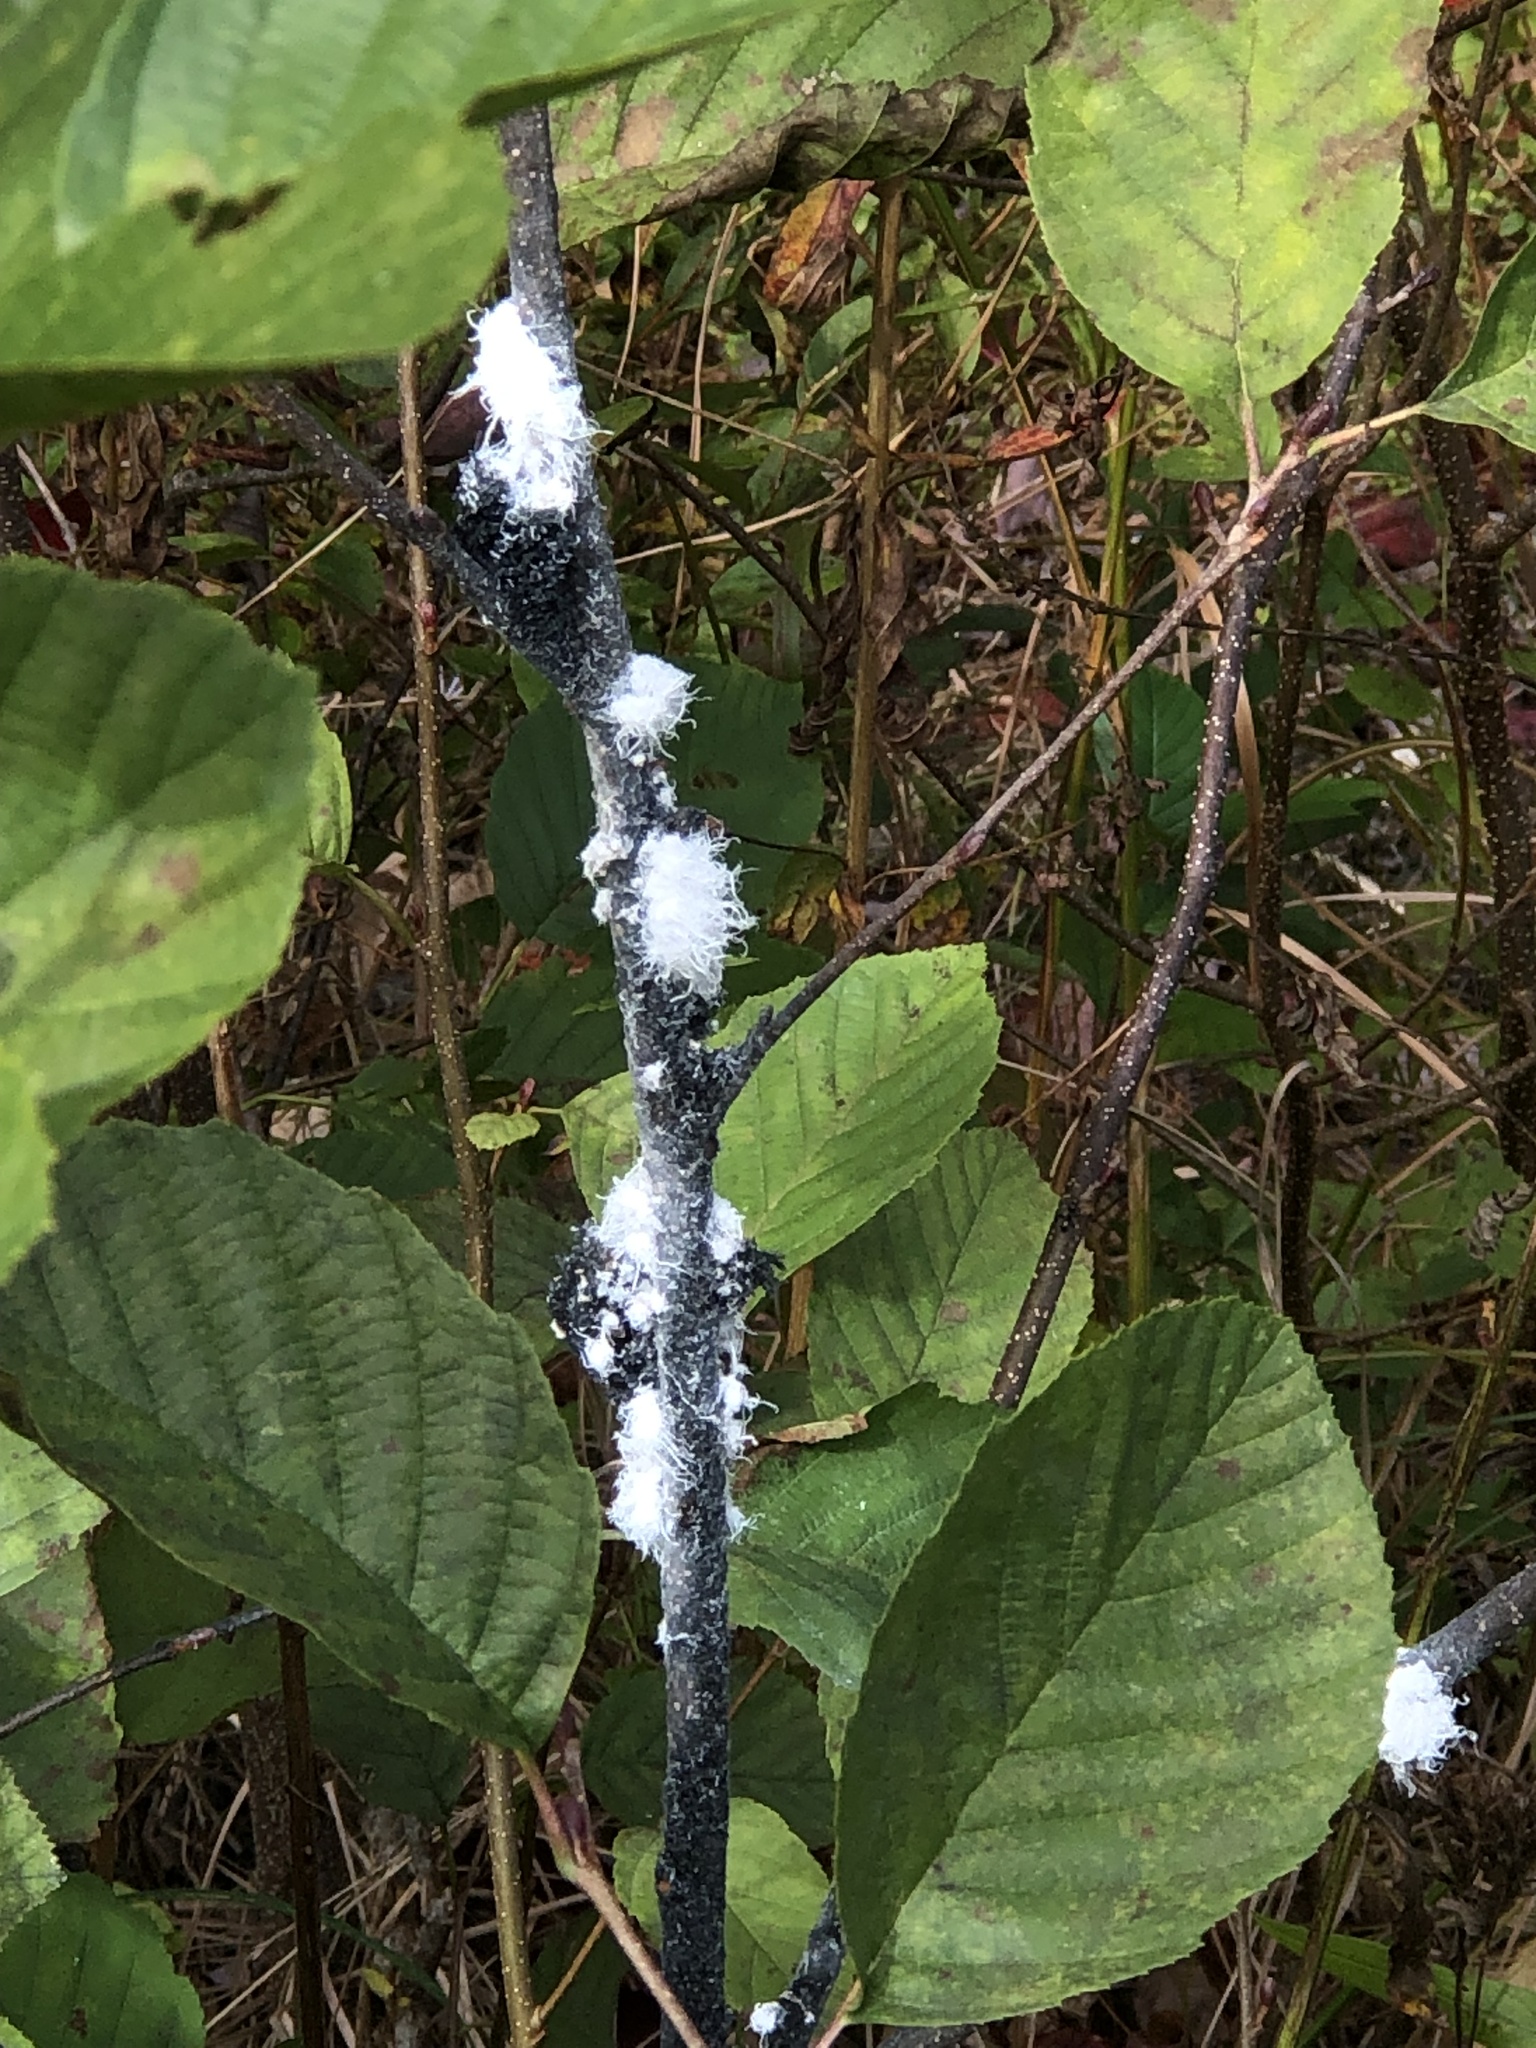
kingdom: Animalia
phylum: Arthropoda
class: Insecta
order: Hemiptera
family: Aphididae
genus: Prociphilus
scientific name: Prociphilus tessellatus
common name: Woolly alder aphid
